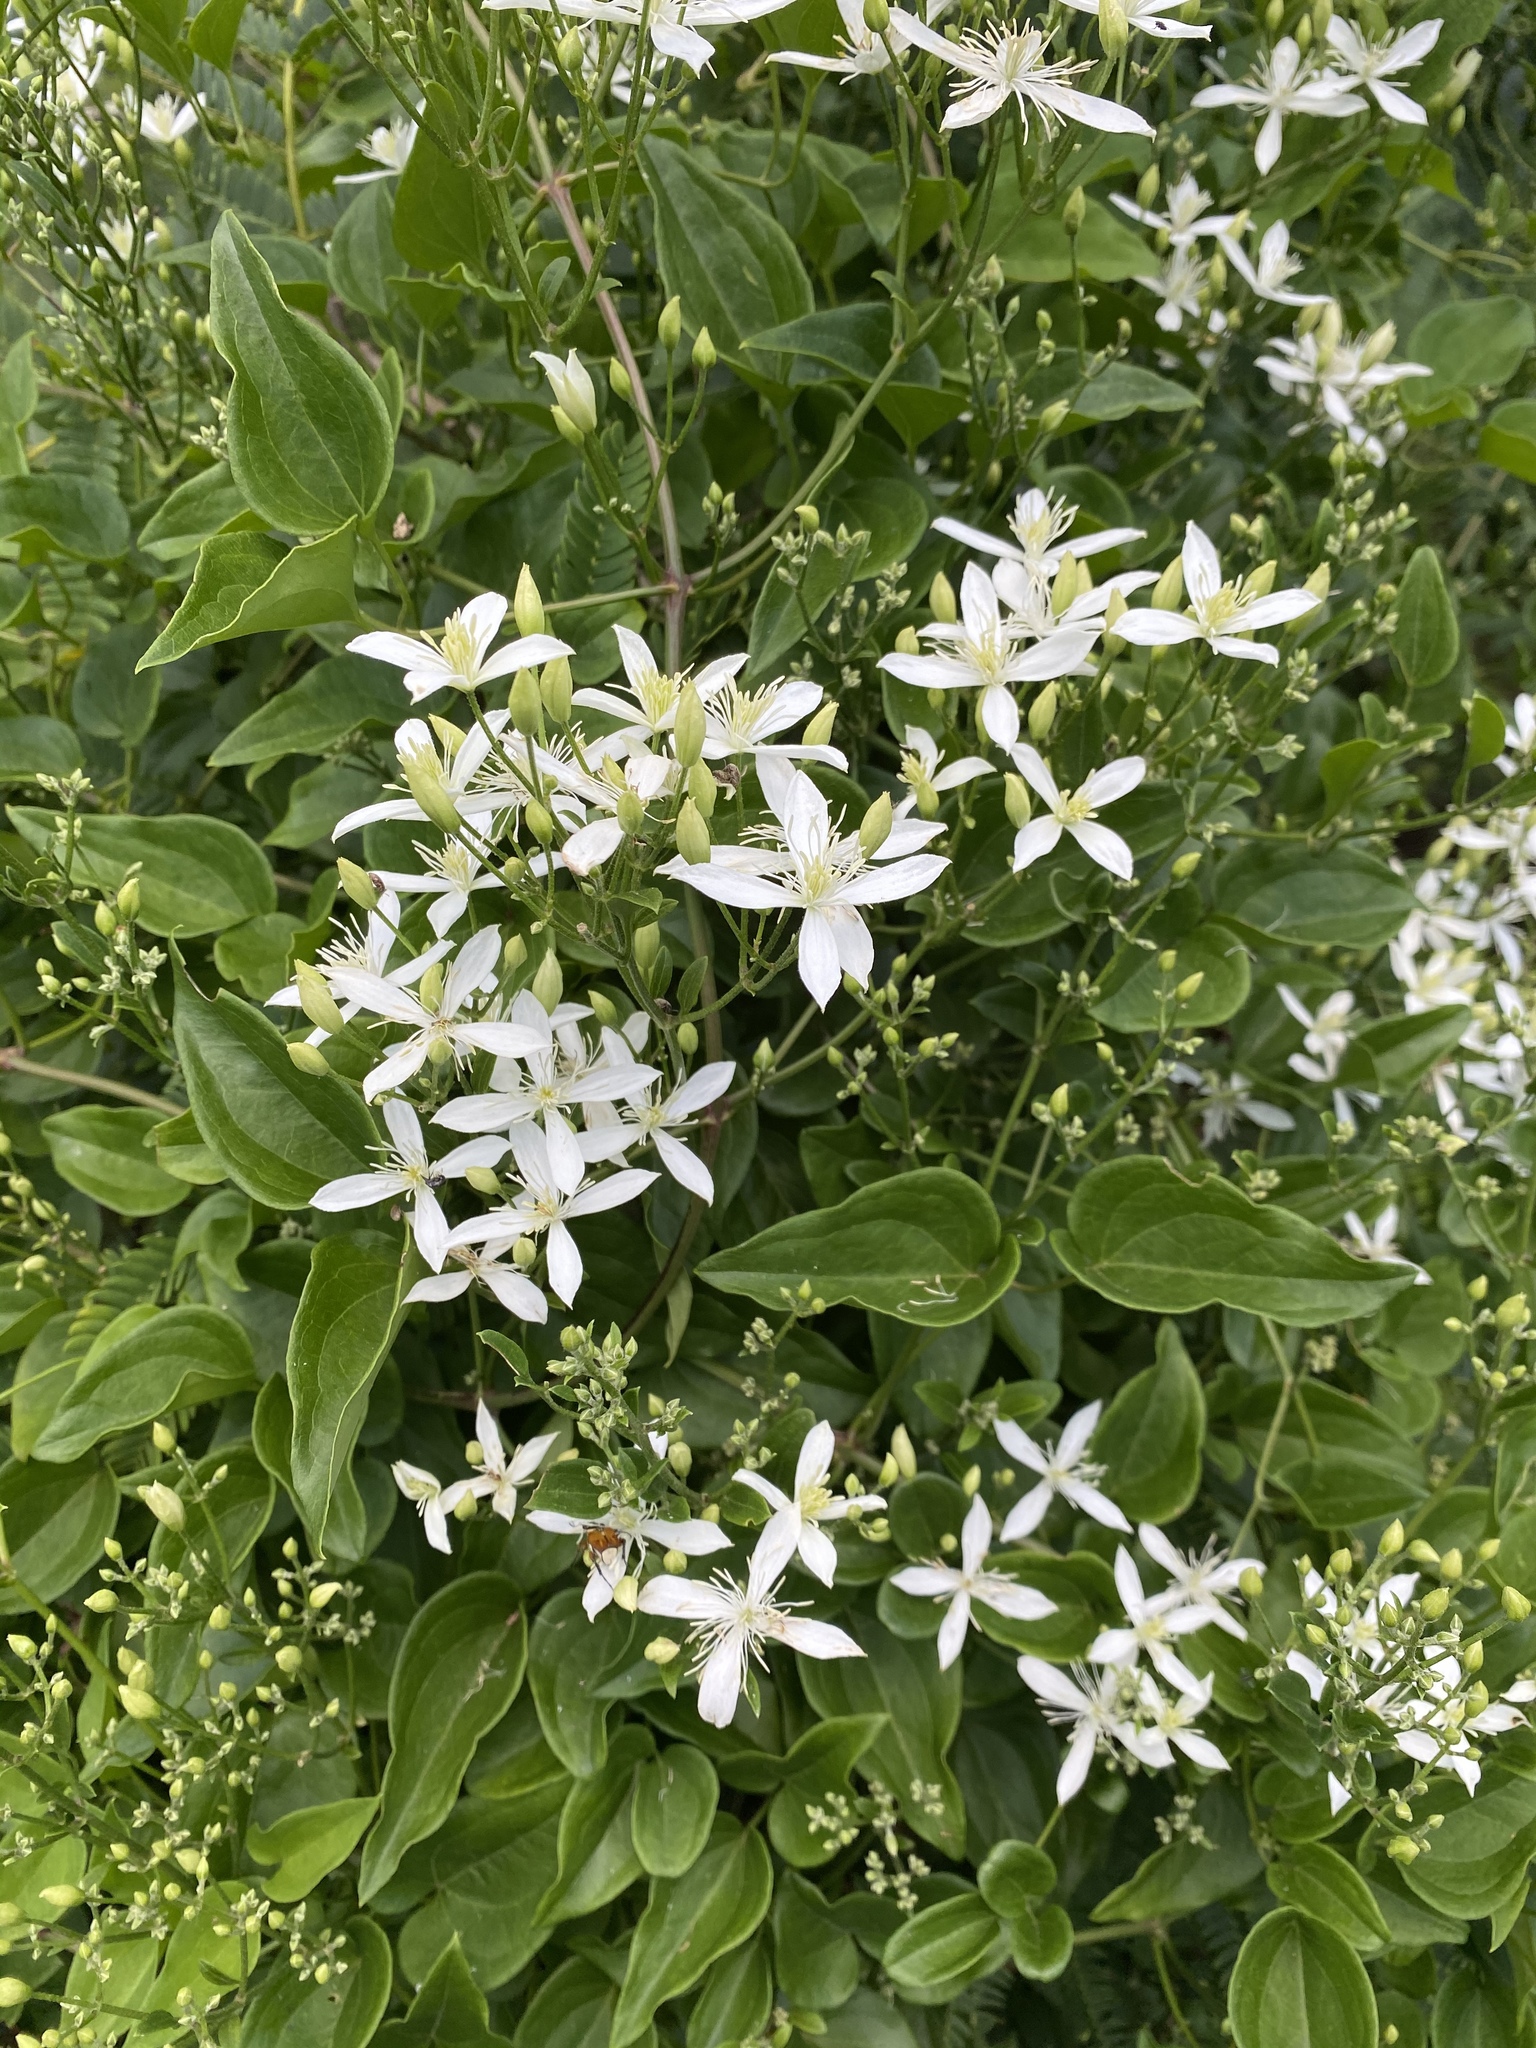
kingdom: Plantae
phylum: Tracheophyta
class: Magnoliopsida
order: Ranunculales
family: Ranunculaceae
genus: Clematis
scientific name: Clematis terniflora
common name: Sweet autumn clematis
